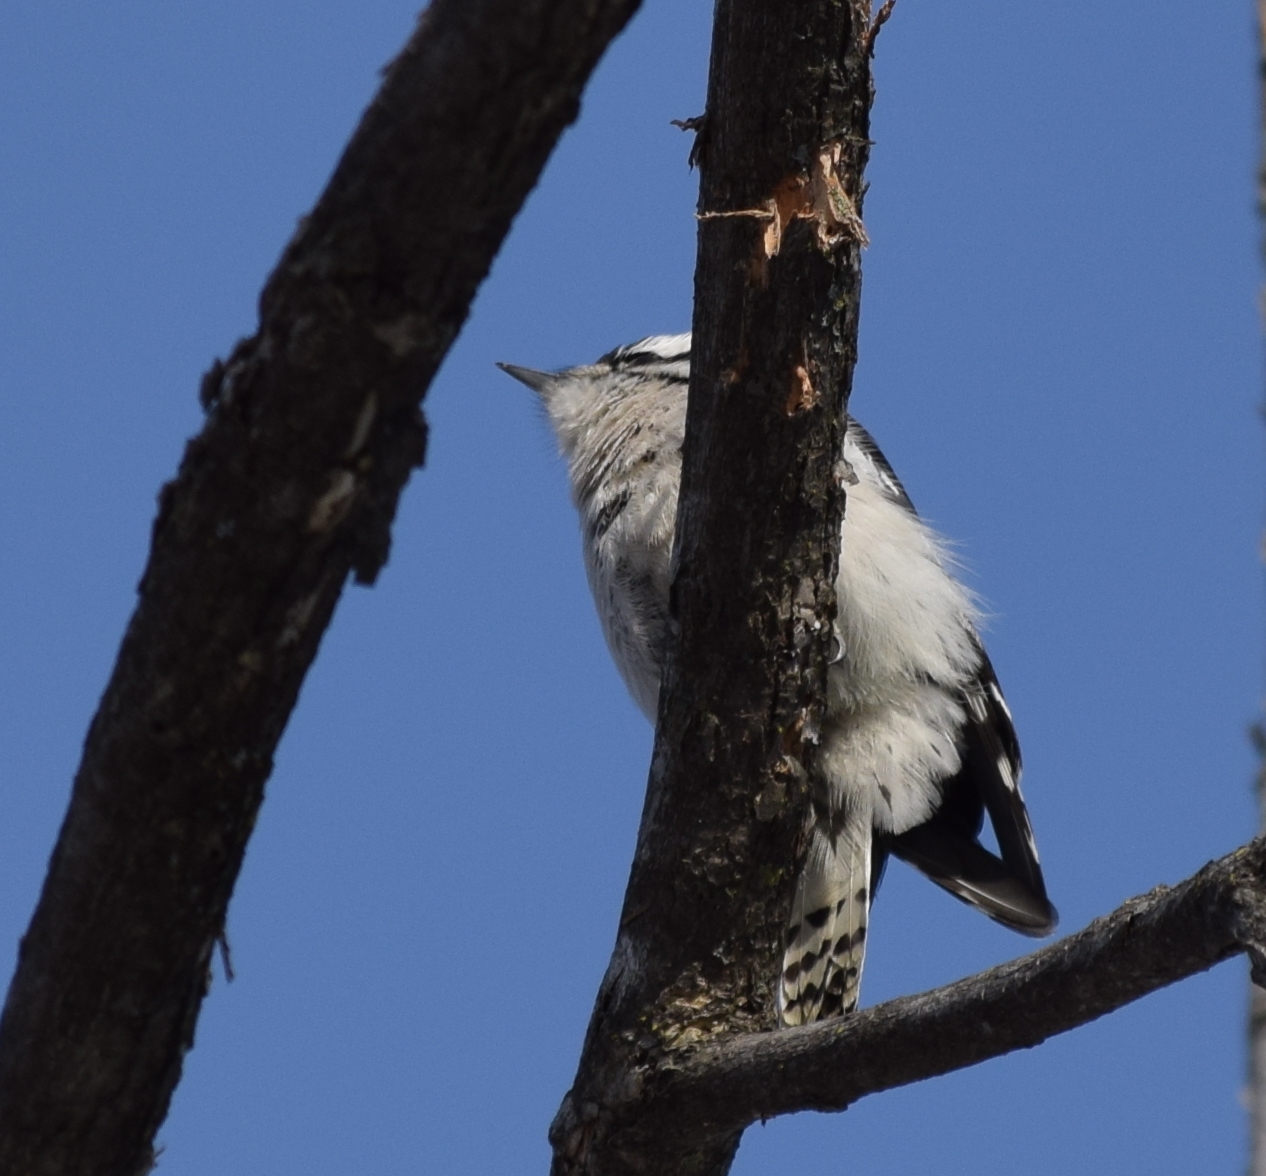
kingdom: Animalia
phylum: Chordata
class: Aves
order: Piciformes
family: Picidae
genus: Dryobates
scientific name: Dryobates pubescens
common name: Downy woodpecker
